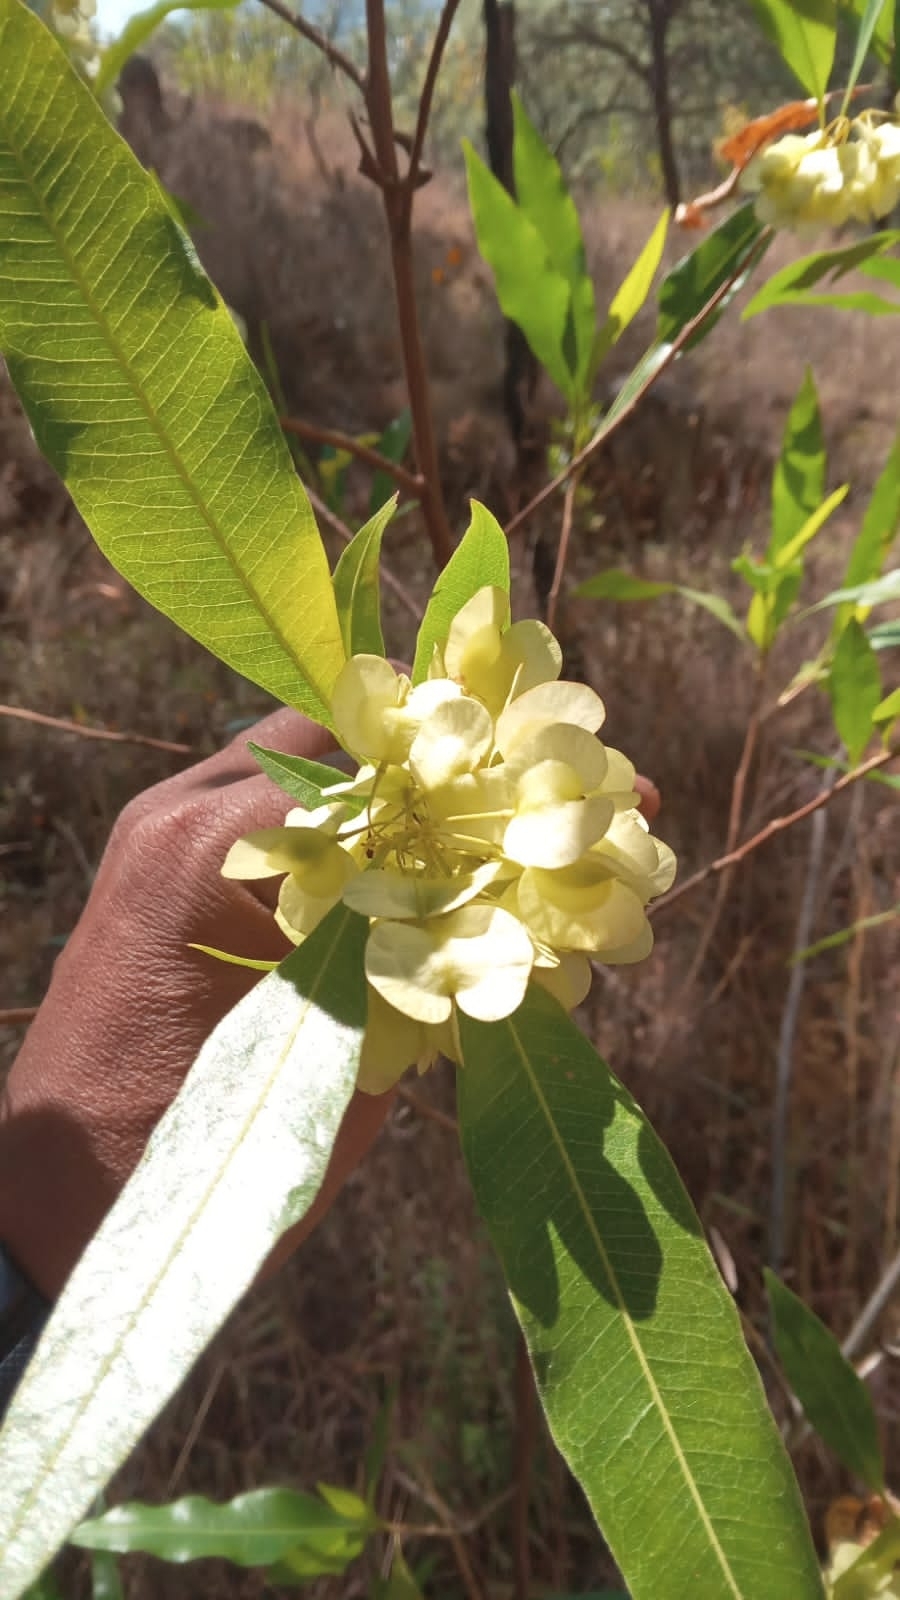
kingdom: Plantae
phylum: Tracheophyta
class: Magnoliopsida
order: Sapindales
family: Sapindaceae
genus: Dodonaea
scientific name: Dodonaea viscosa
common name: Hopbush
